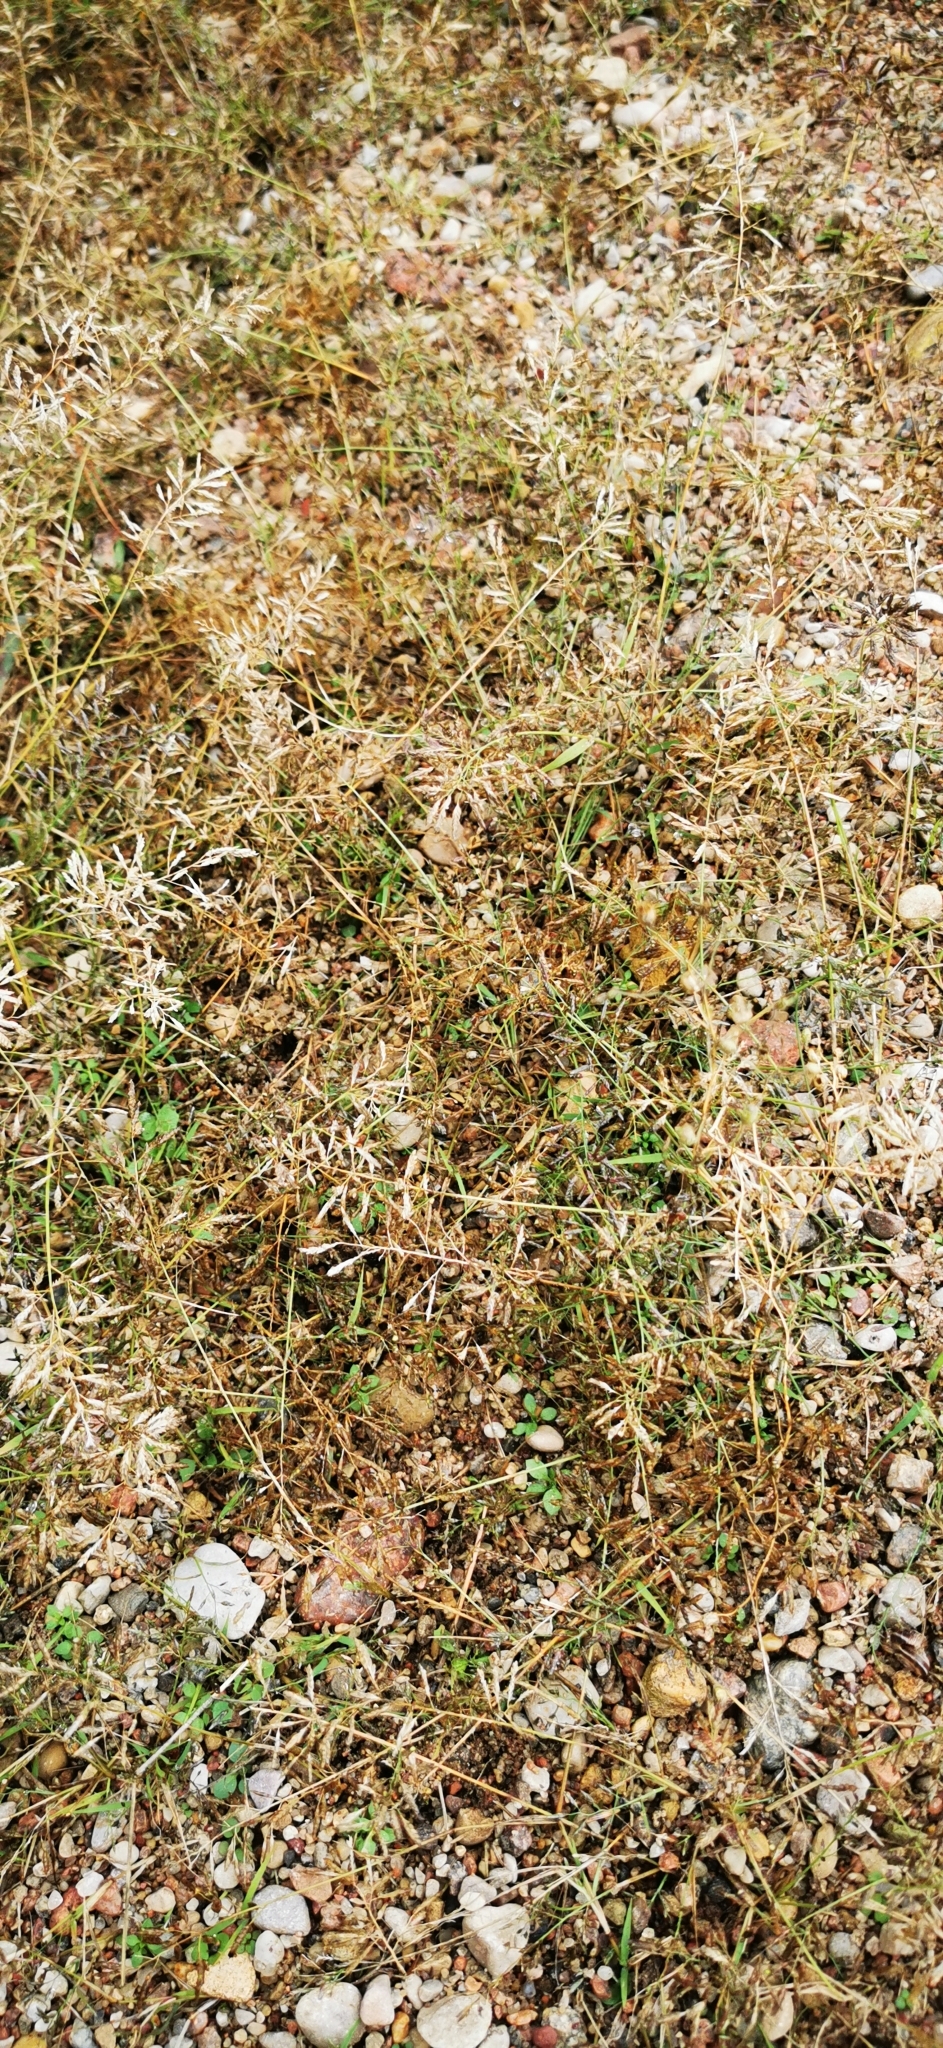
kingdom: Plantae
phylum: Tracheophyta
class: Liliopsida
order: Poales
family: Poaceae
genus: Eragrostis
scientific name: Eragrostis minor
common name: Small love-grass
